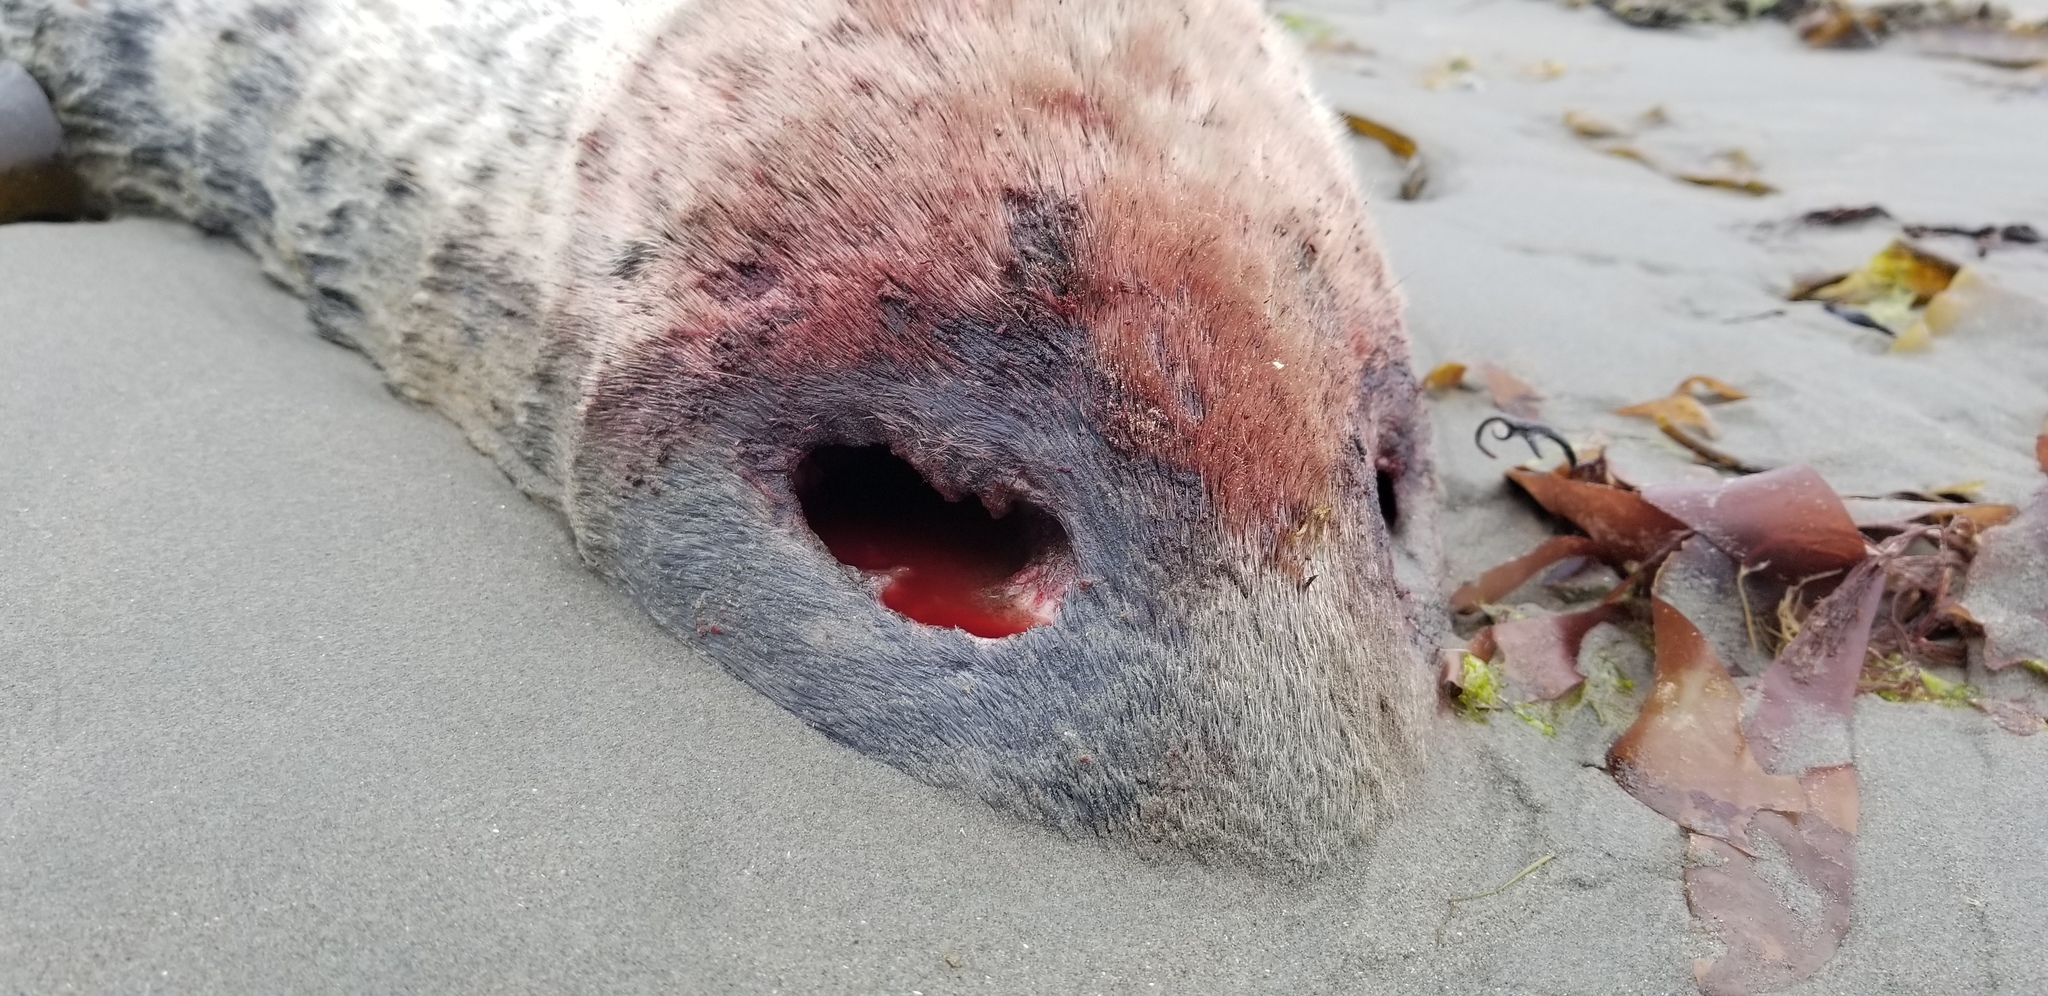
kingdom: Animalia
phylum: Chordata
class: Mammalia
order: Carnivora
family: Phocidae
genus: Phoca
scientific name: Phoca vitulina
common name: Harbor seal
